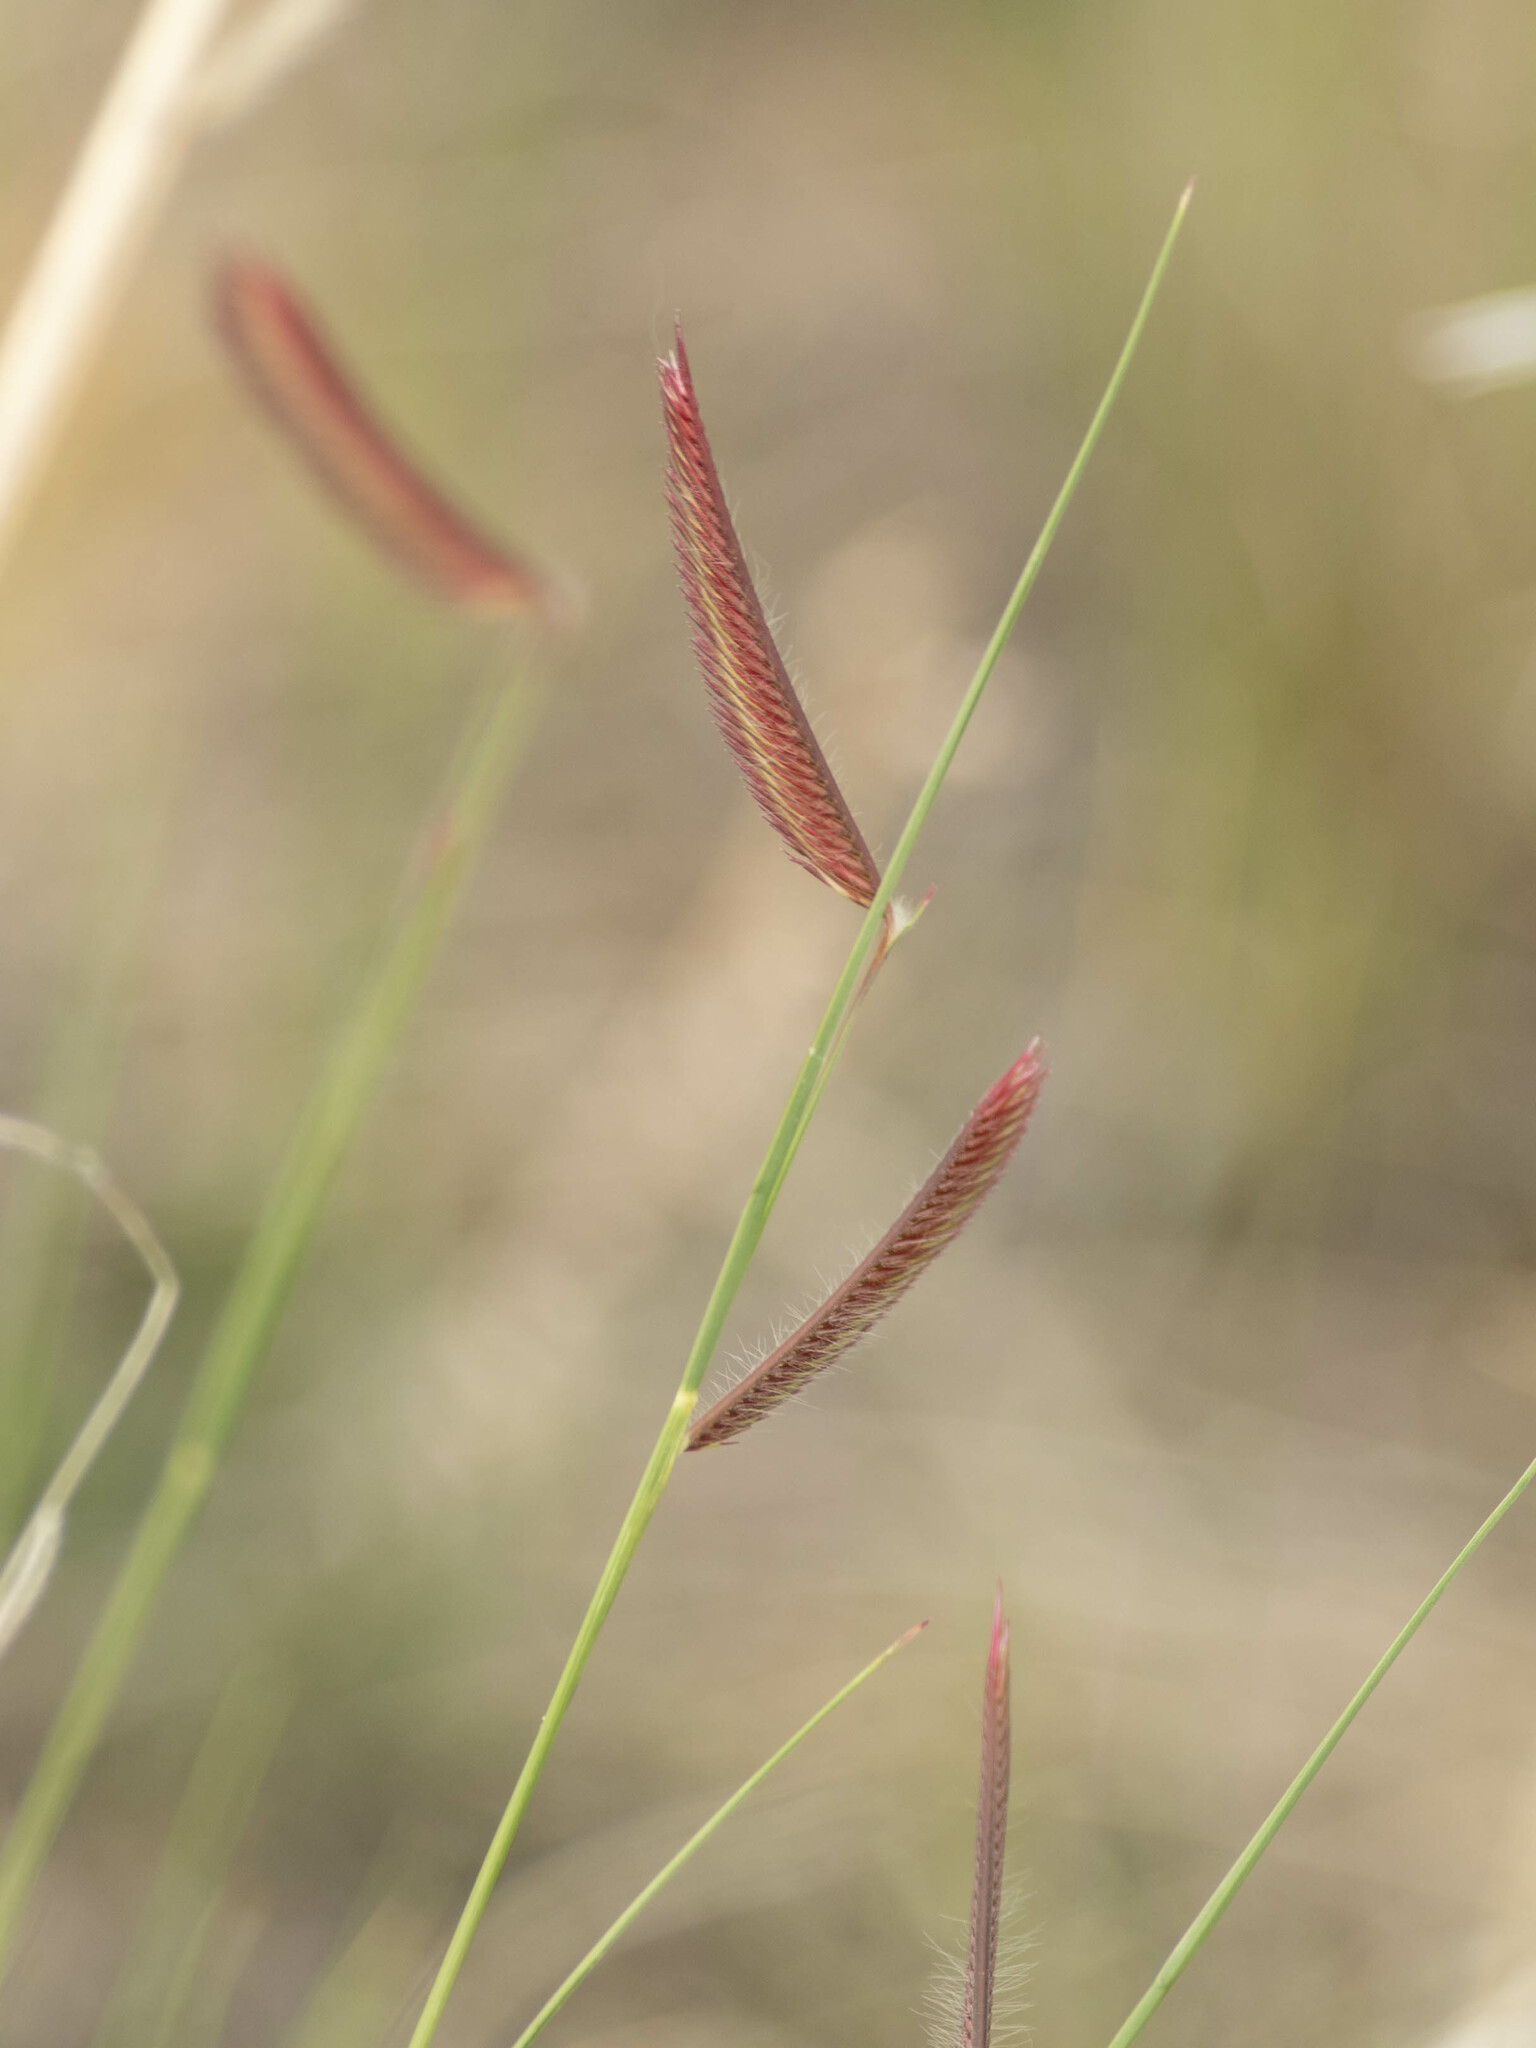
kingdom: Plantae
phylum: Tracheophyta
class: Liliopsida
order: Poales
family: Poaceae
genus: Bouteloua
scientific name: Bouteloua gracilis
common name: Blue grama
